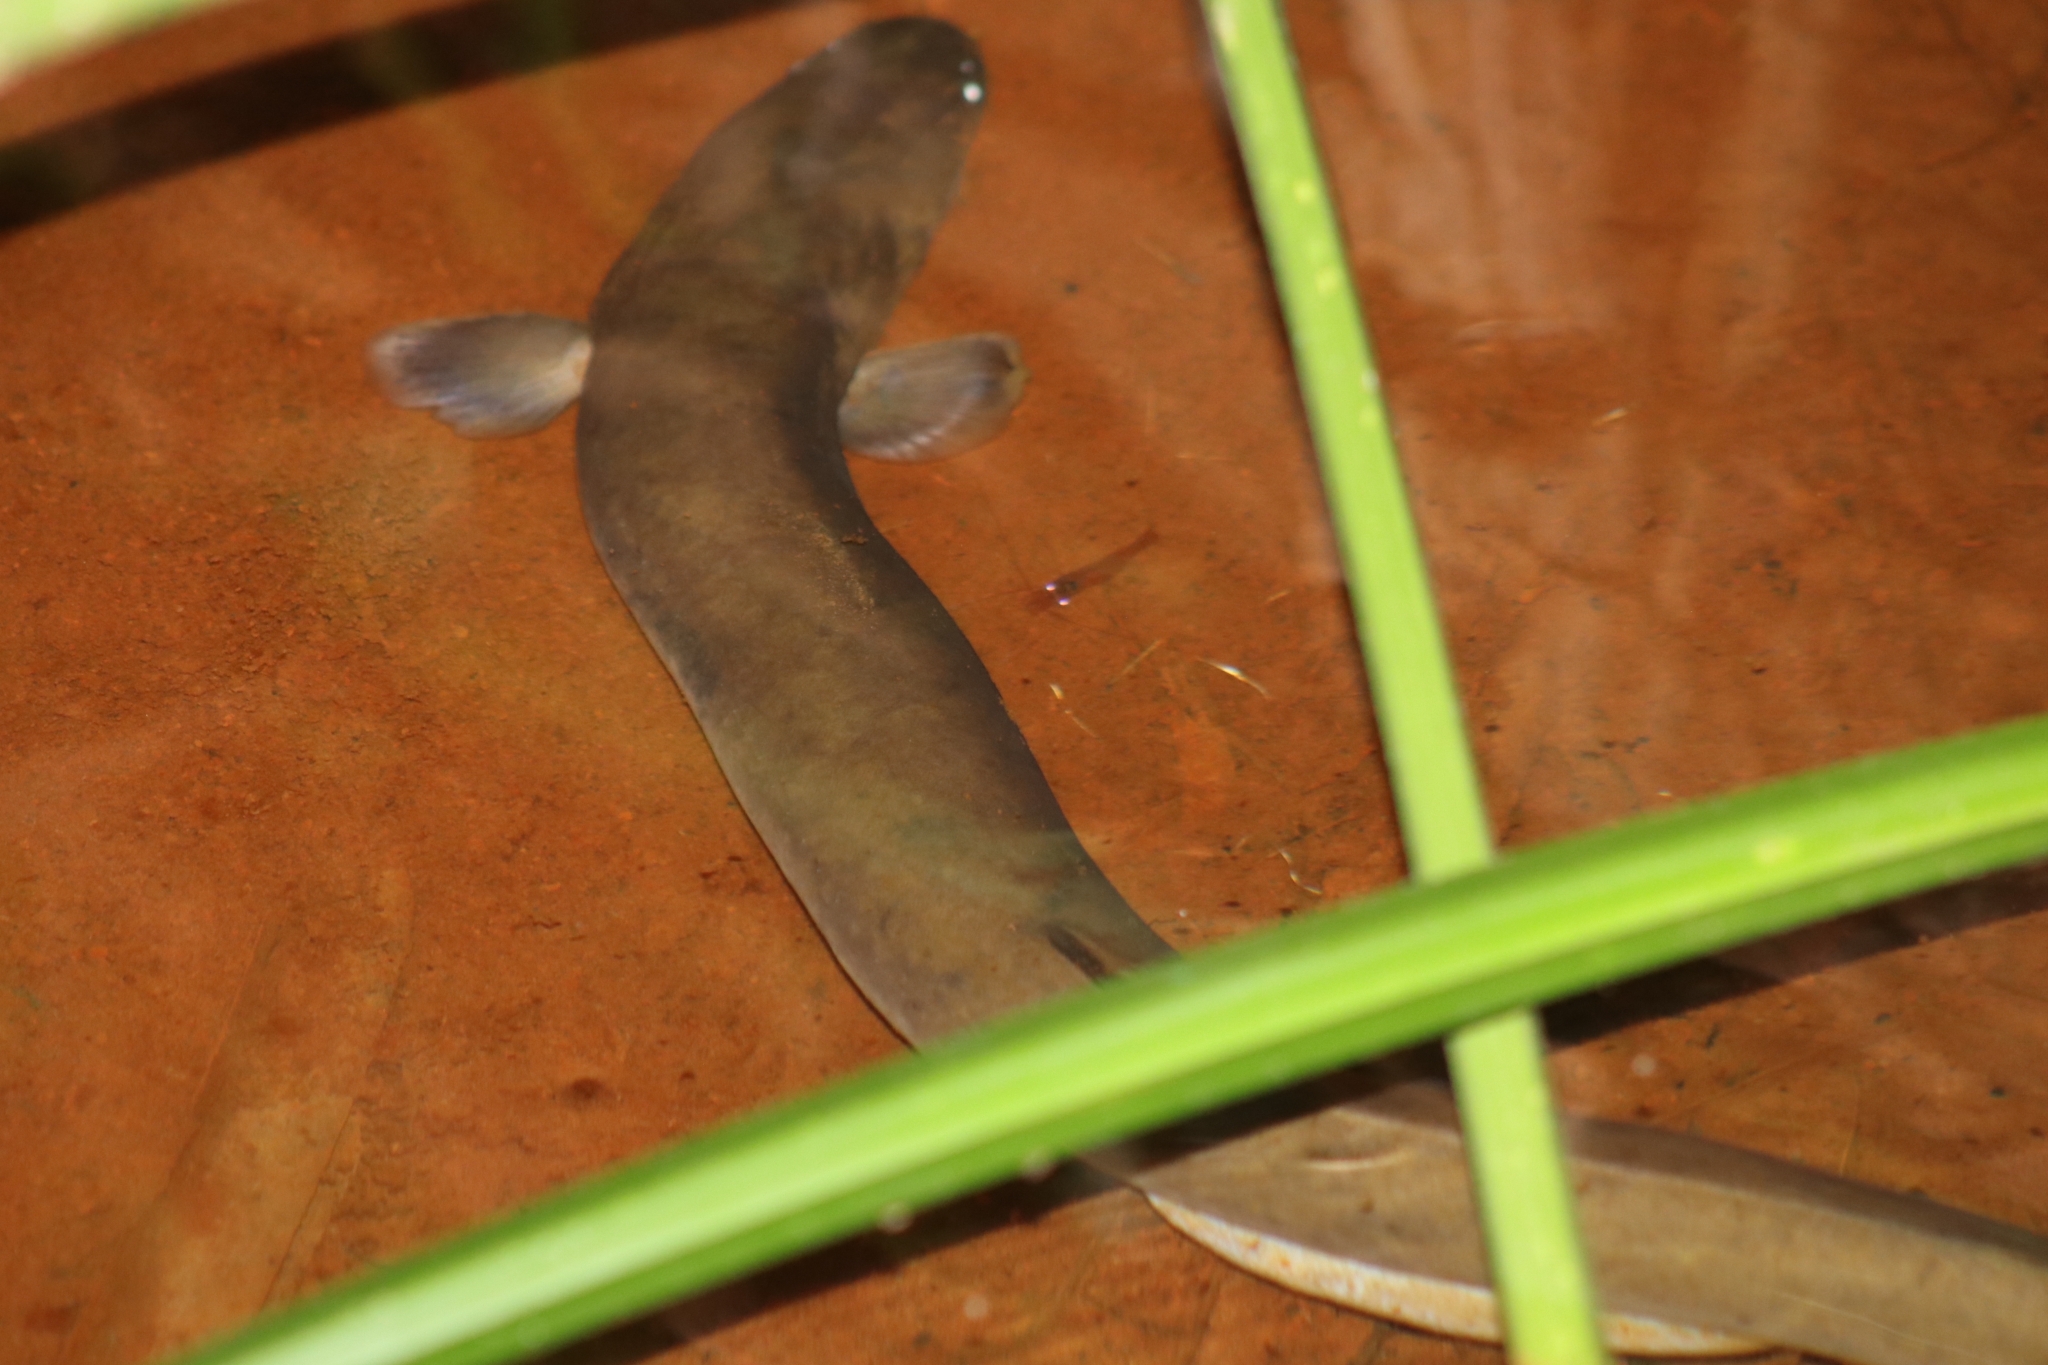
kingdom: Animalia
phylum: Chordata
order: Anguilliformes
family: Anguillidae
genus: Anguilla
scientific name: Anguilla obscura
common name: Pacific short-finned eel
